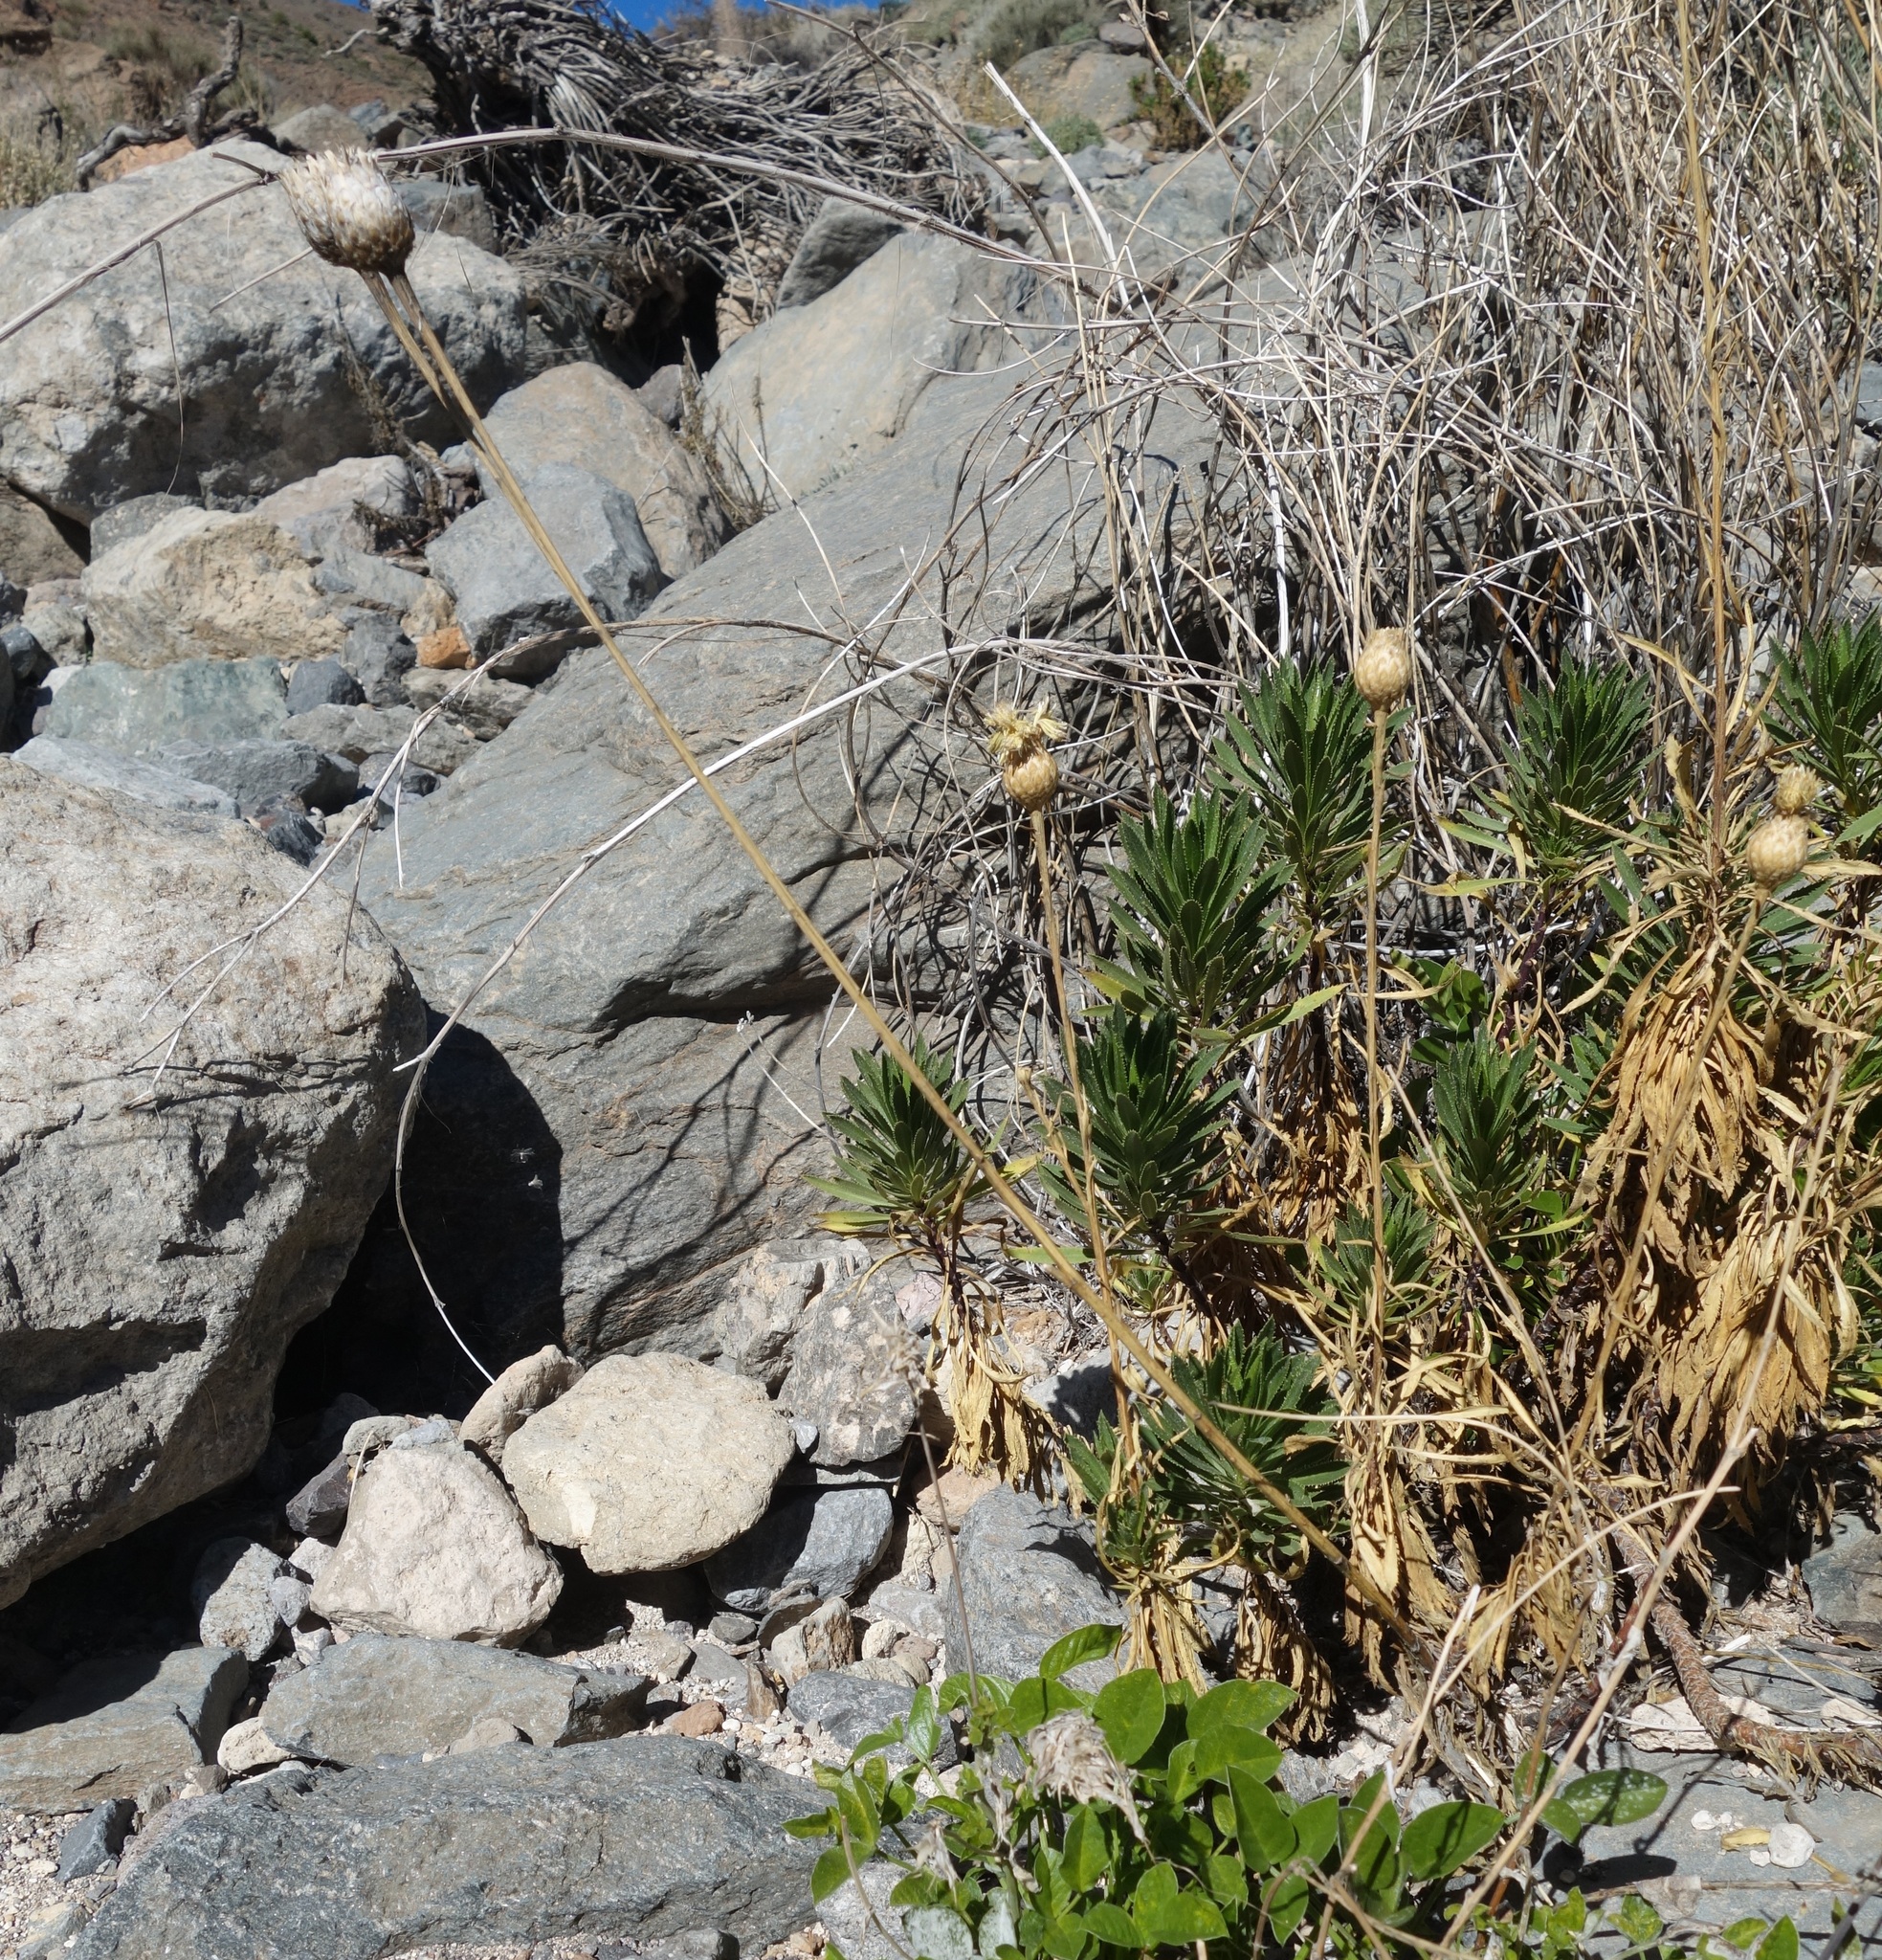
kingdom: Plantae
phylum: Tracheophyta
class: Magnoliopsida
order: Asterales
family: Asteraceae
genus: Cheirolophus
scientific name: Cheirolophus teydis
